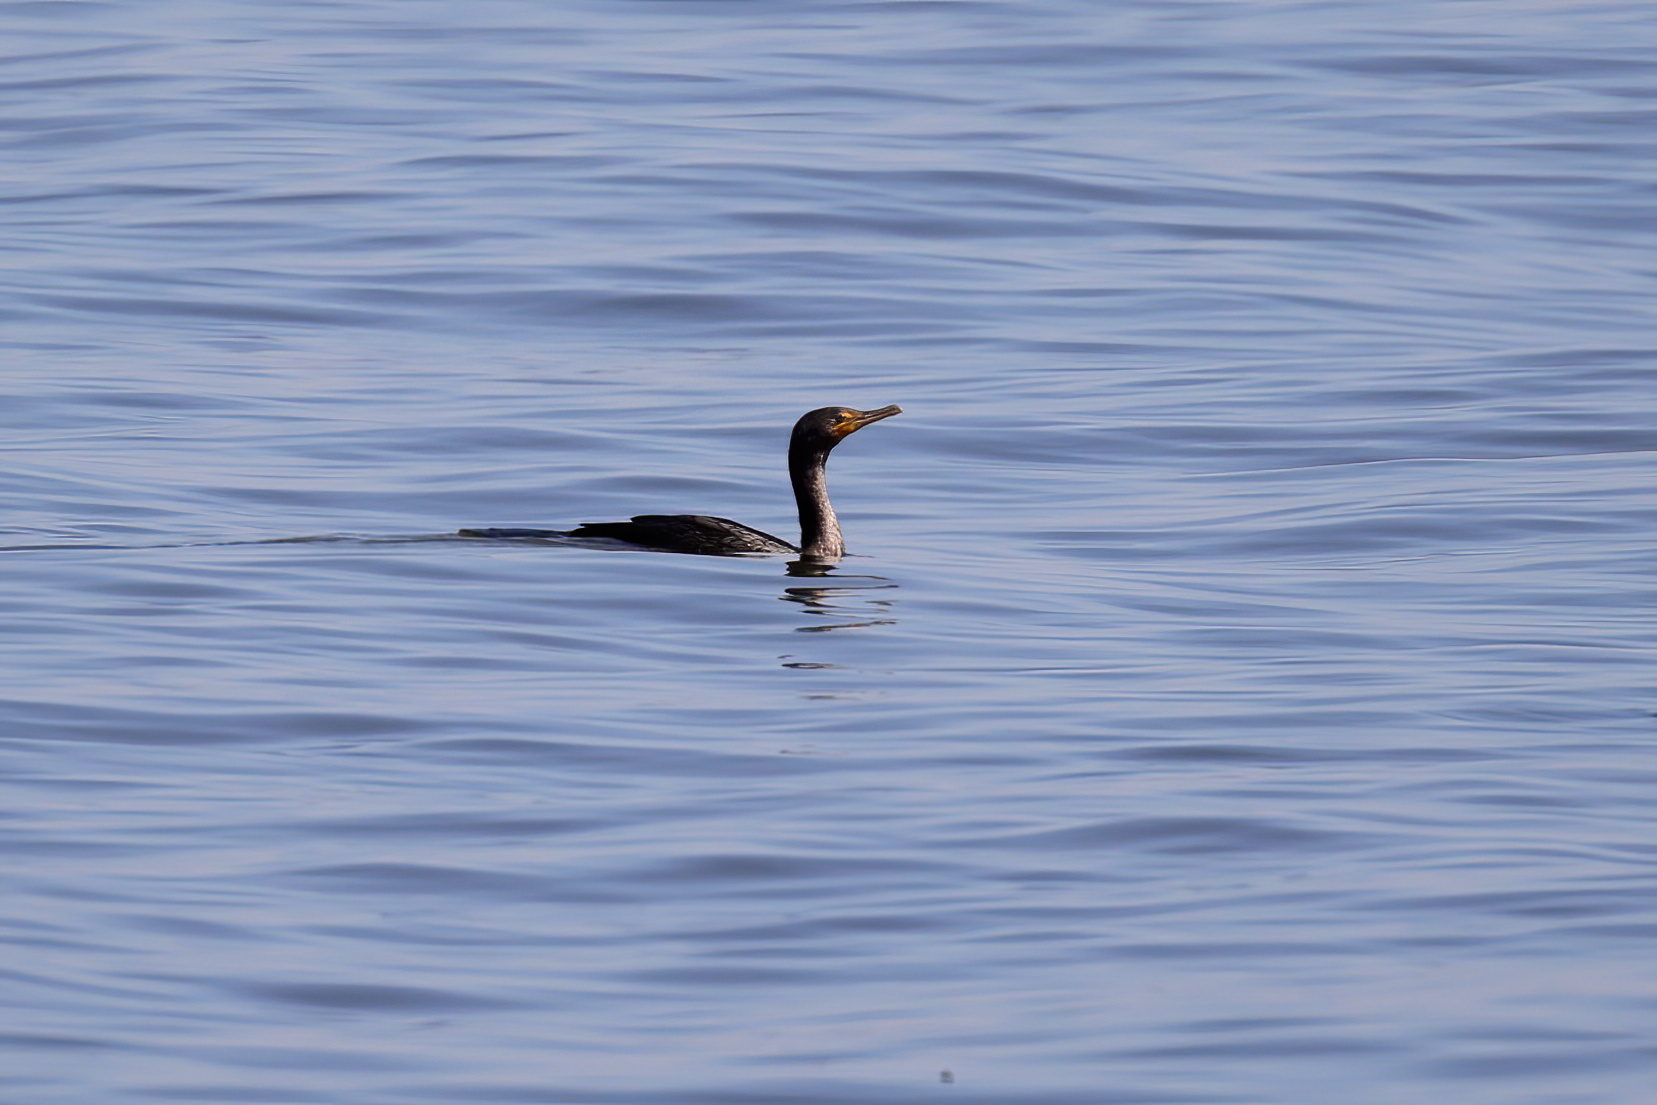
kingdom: Animalia
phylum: Chordata
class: Aves
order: Suliformes
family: Phalacrocoracidae
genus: Phalacrocorax
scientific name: Phalacrocorax auritus
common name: Double-crested cormorant
